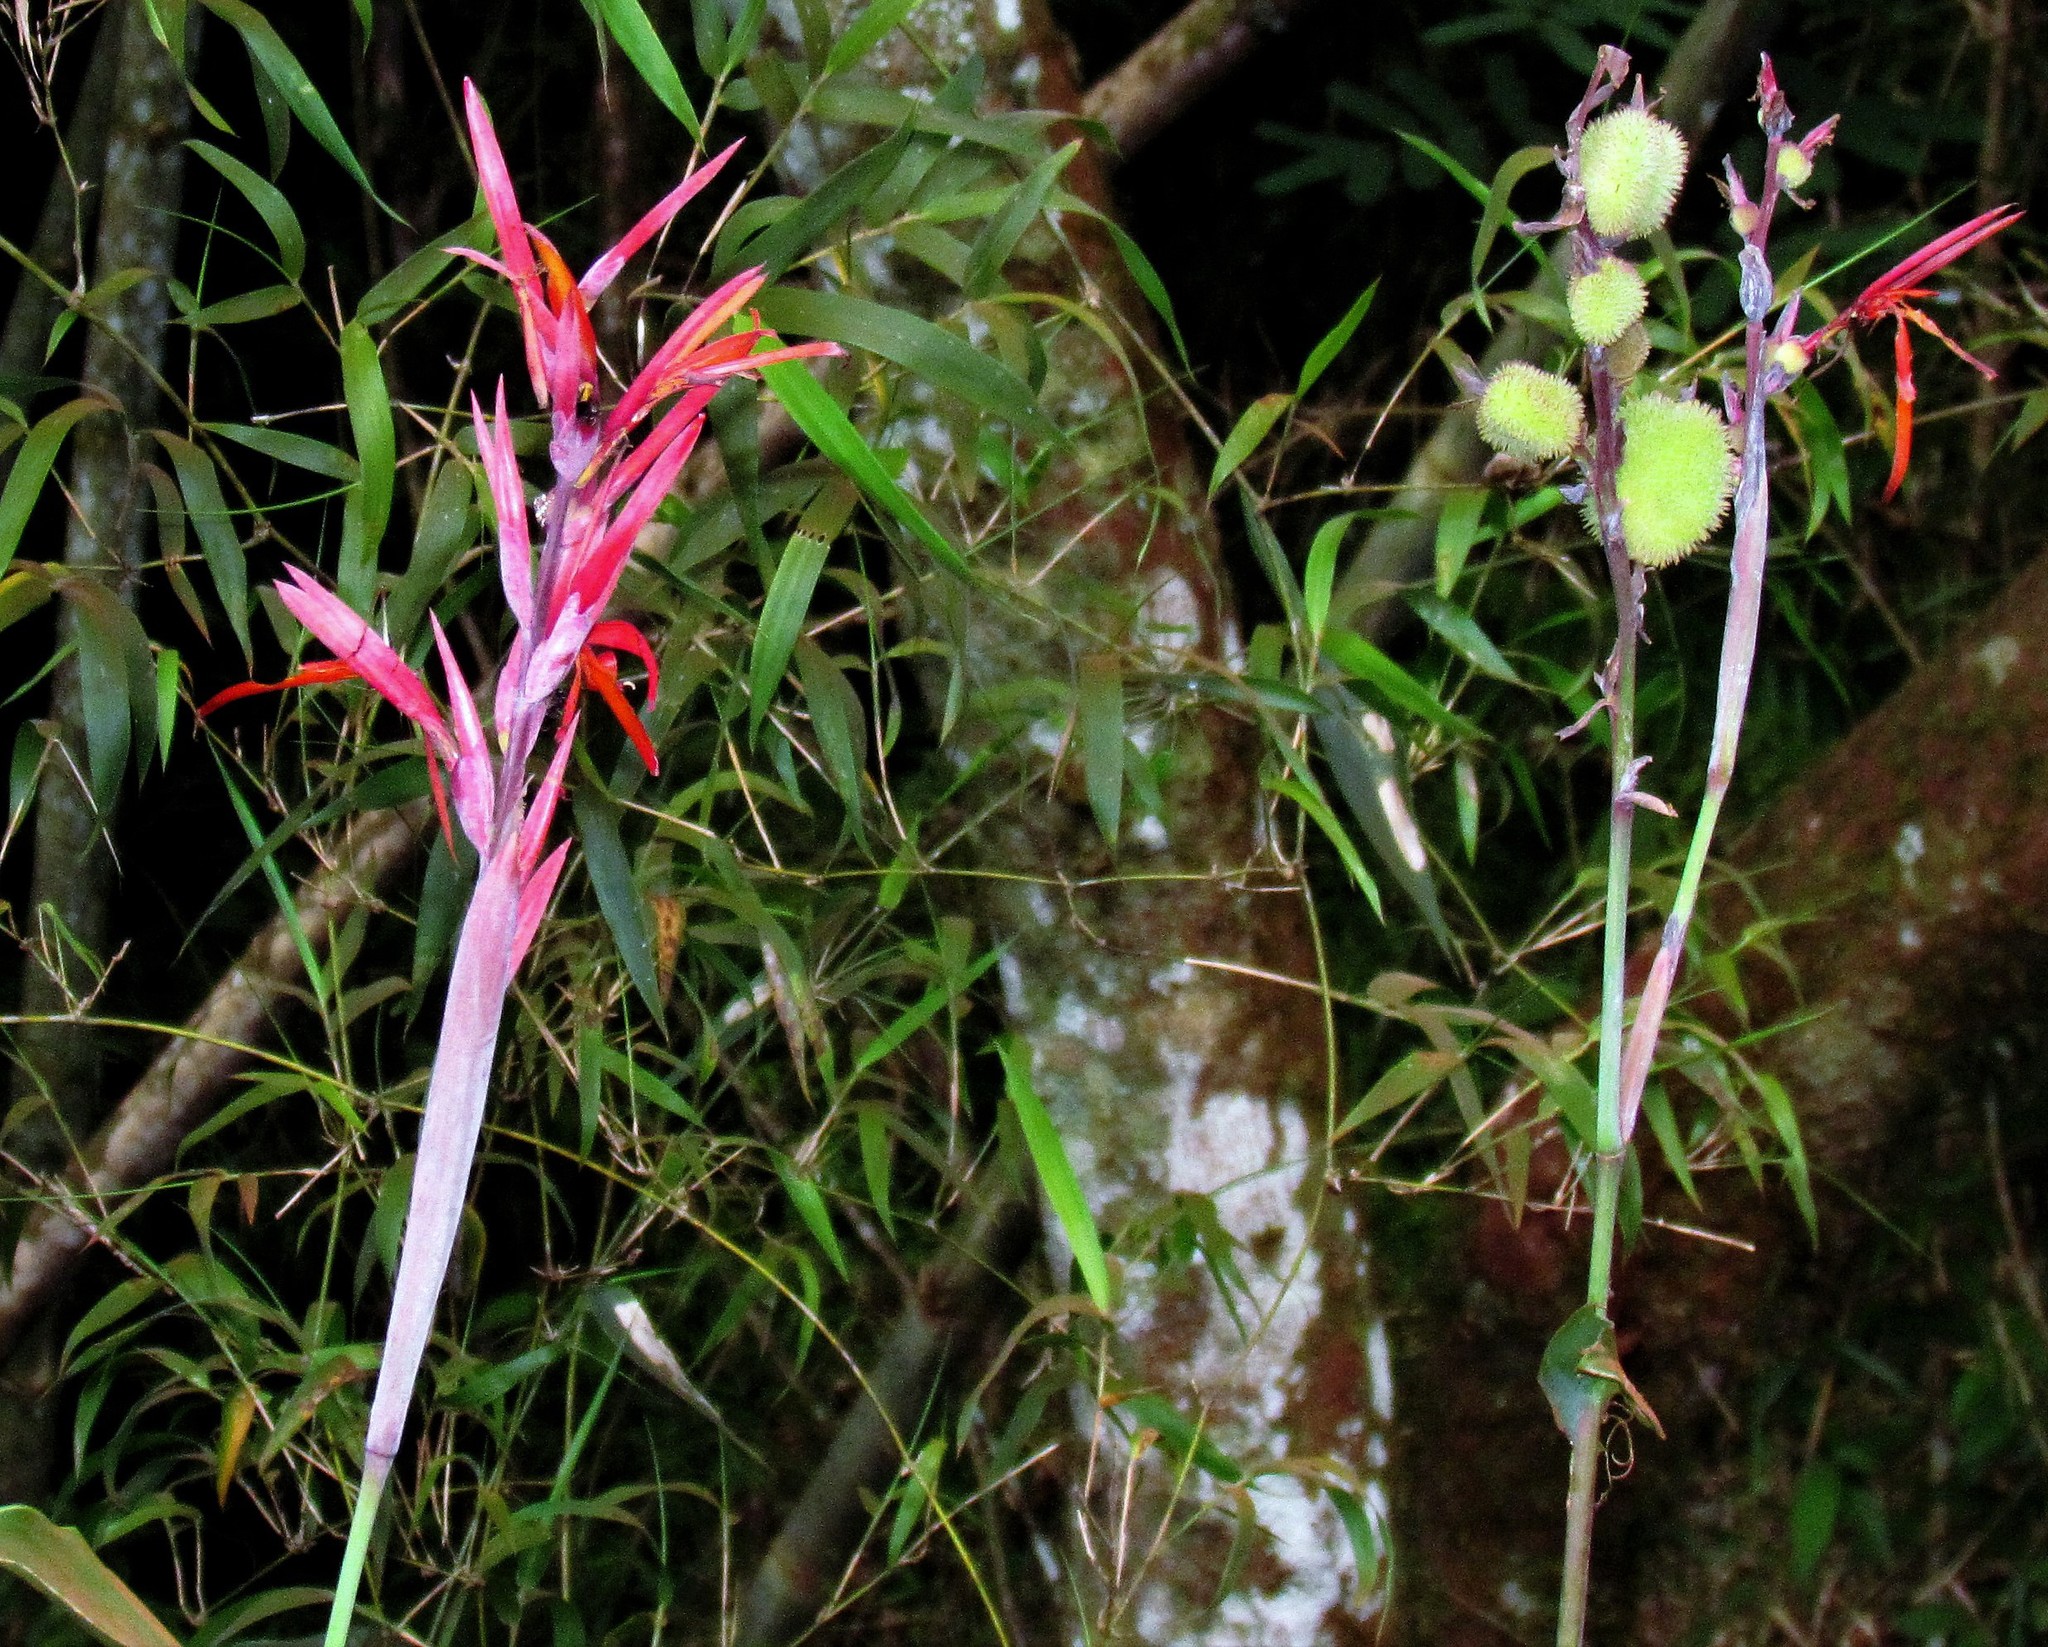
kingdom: Plantae
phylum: Tracheophyta
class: Liliopsida
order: Zingiberales
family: Cannaceae
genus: Canna
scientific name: Canna indica
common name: Indian shot
